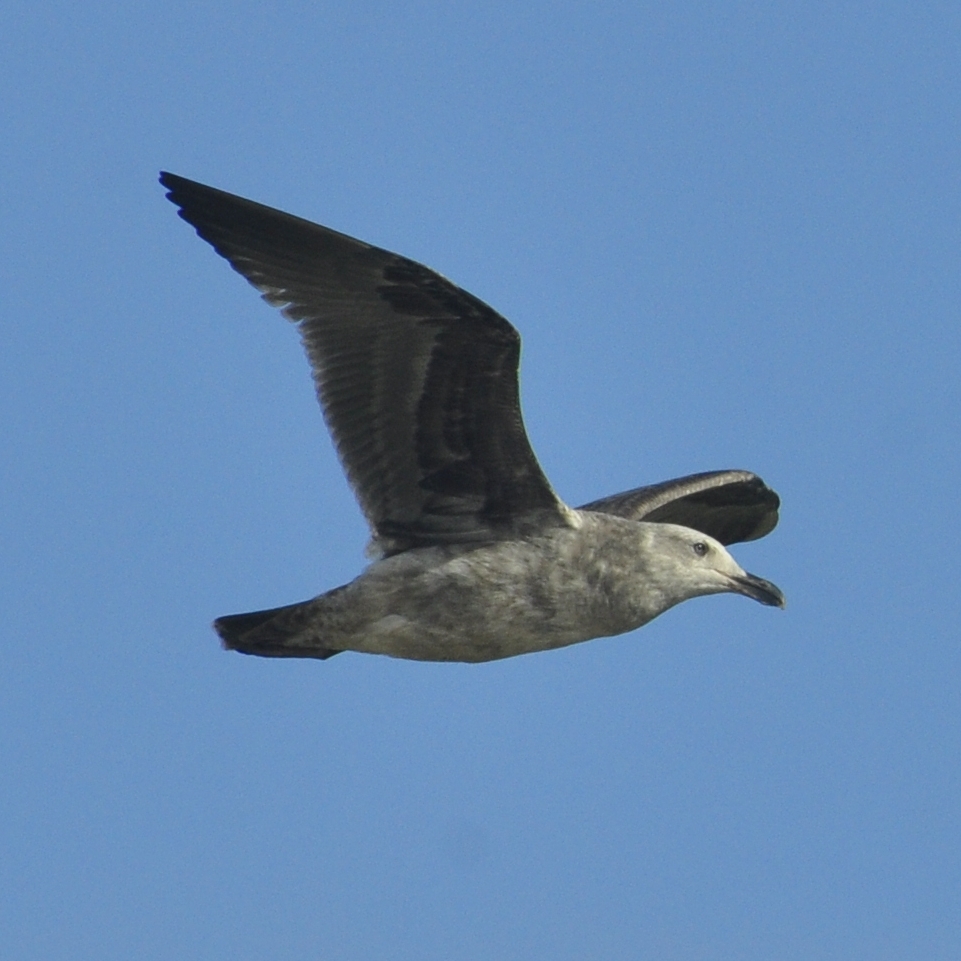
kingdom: Animalia
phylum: Chordata
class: Aves
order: Charadriiformes
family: Laridae
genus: Larus
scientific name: Larus occidentalis
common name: Western gull
